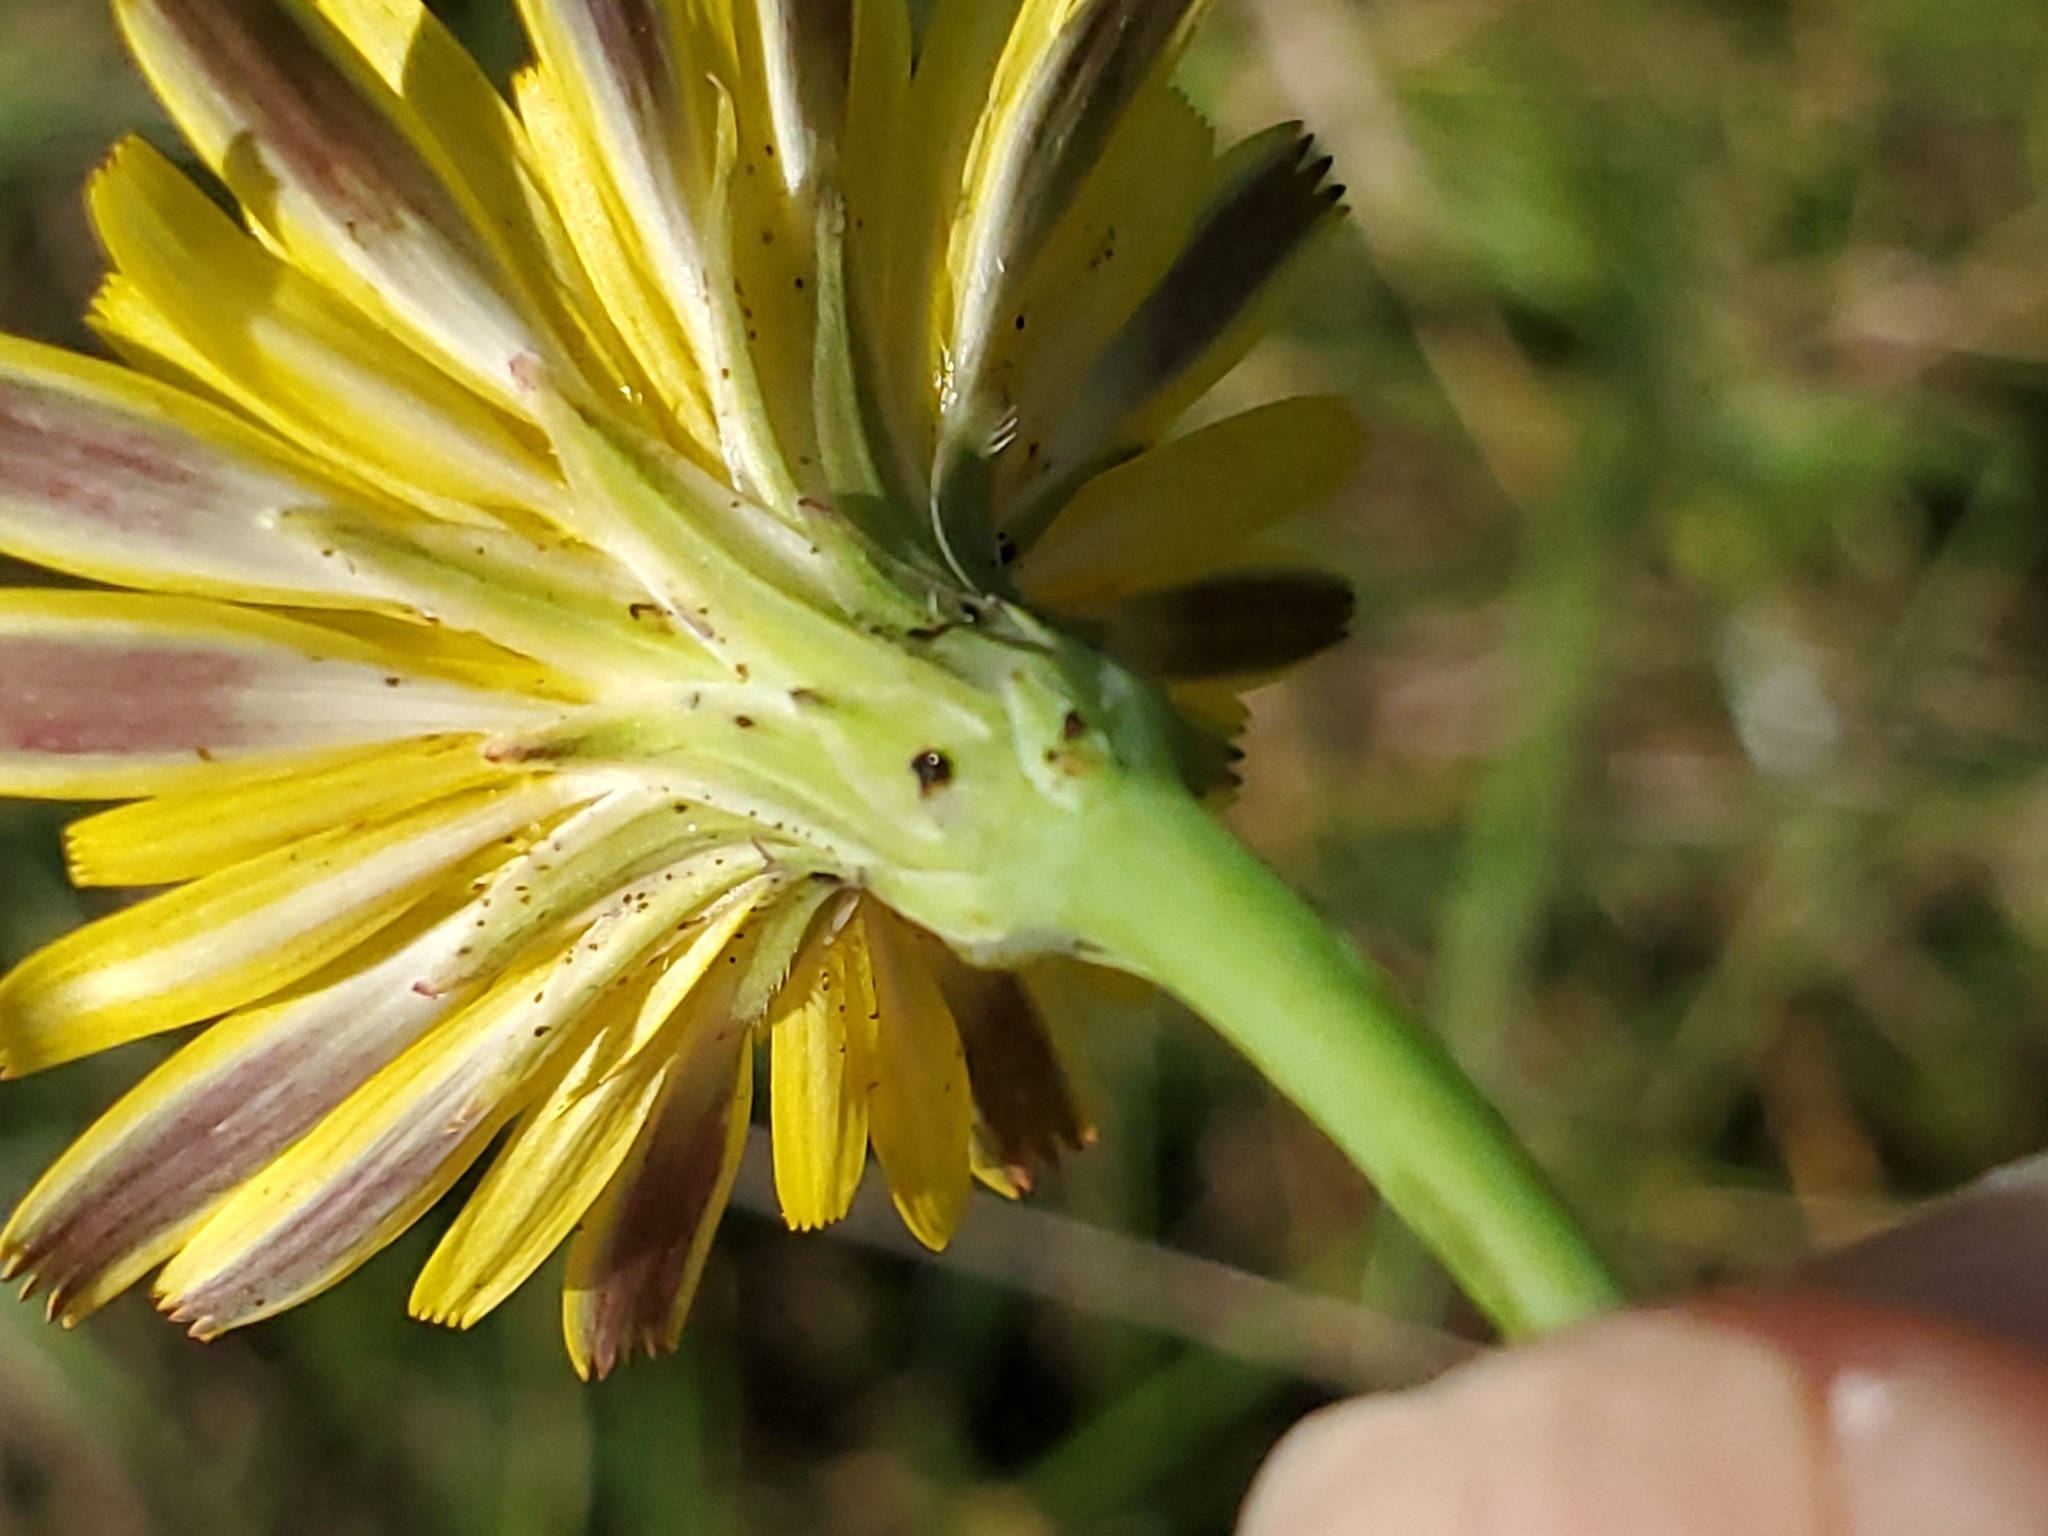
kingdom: Plantae
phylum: Tracheophyta
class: Magnoliopsida
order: Asterales
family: Asteraceae
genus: Hypochaeris
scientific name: Hypochaeris radicata
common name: Flatweed
